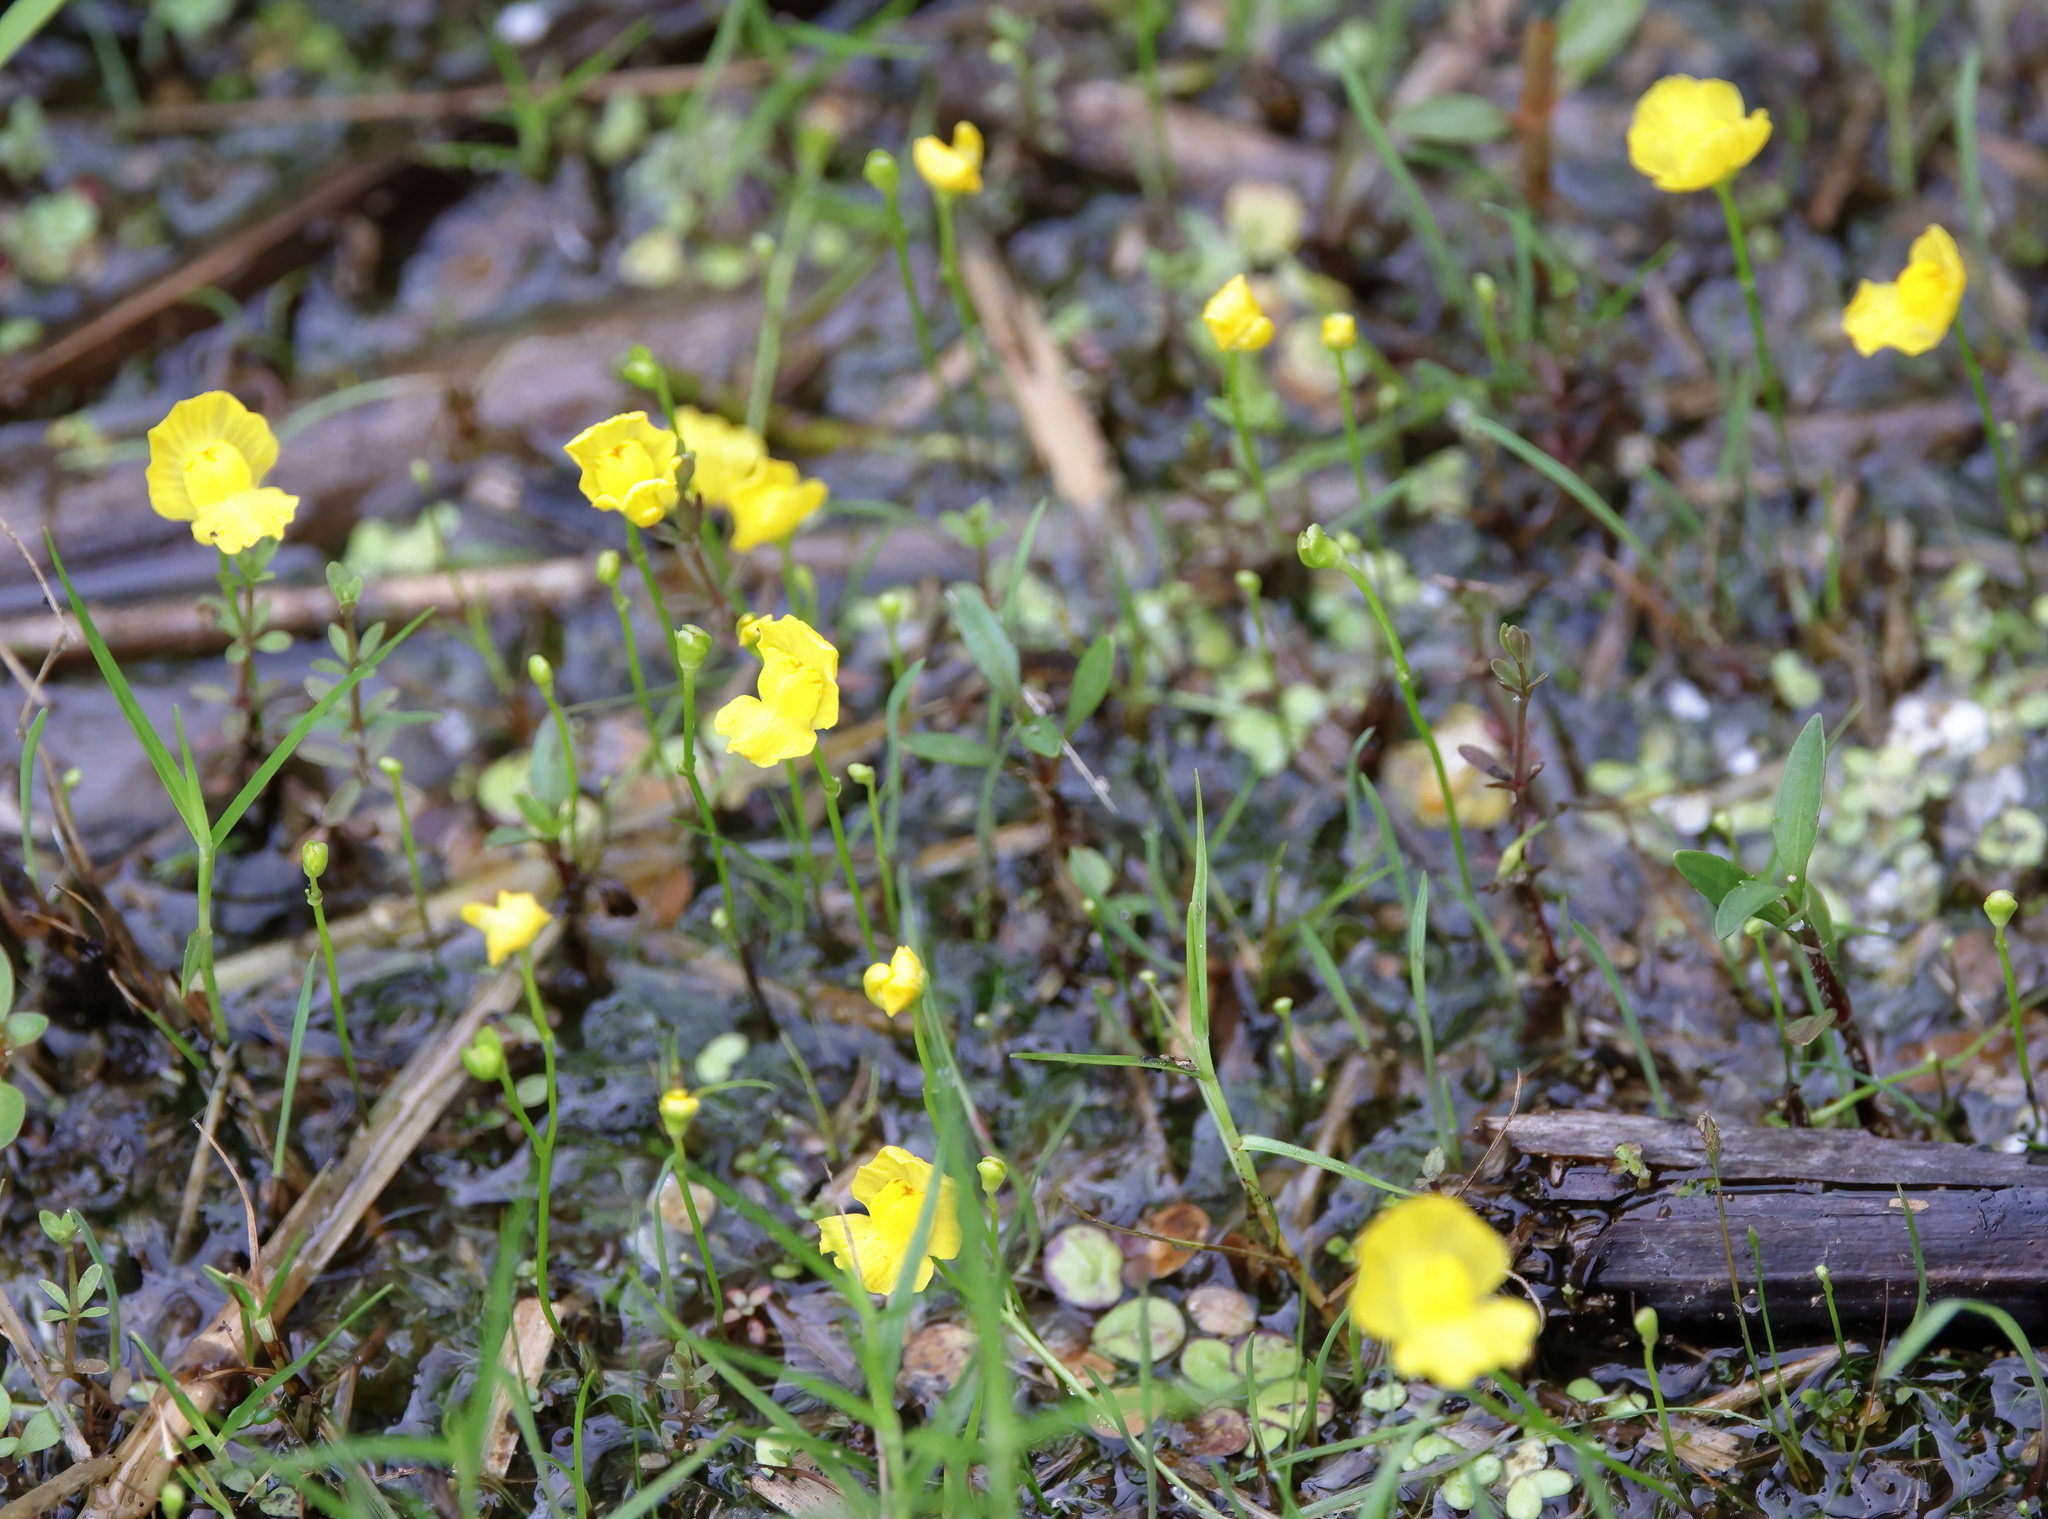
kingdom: Plantae
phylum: Tracheophyta
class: Magnoliopsida
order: Lamiales
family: Lentibulariaceae
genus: Utricularia
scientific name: Utricularia gibba
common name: Humped bladderwort
